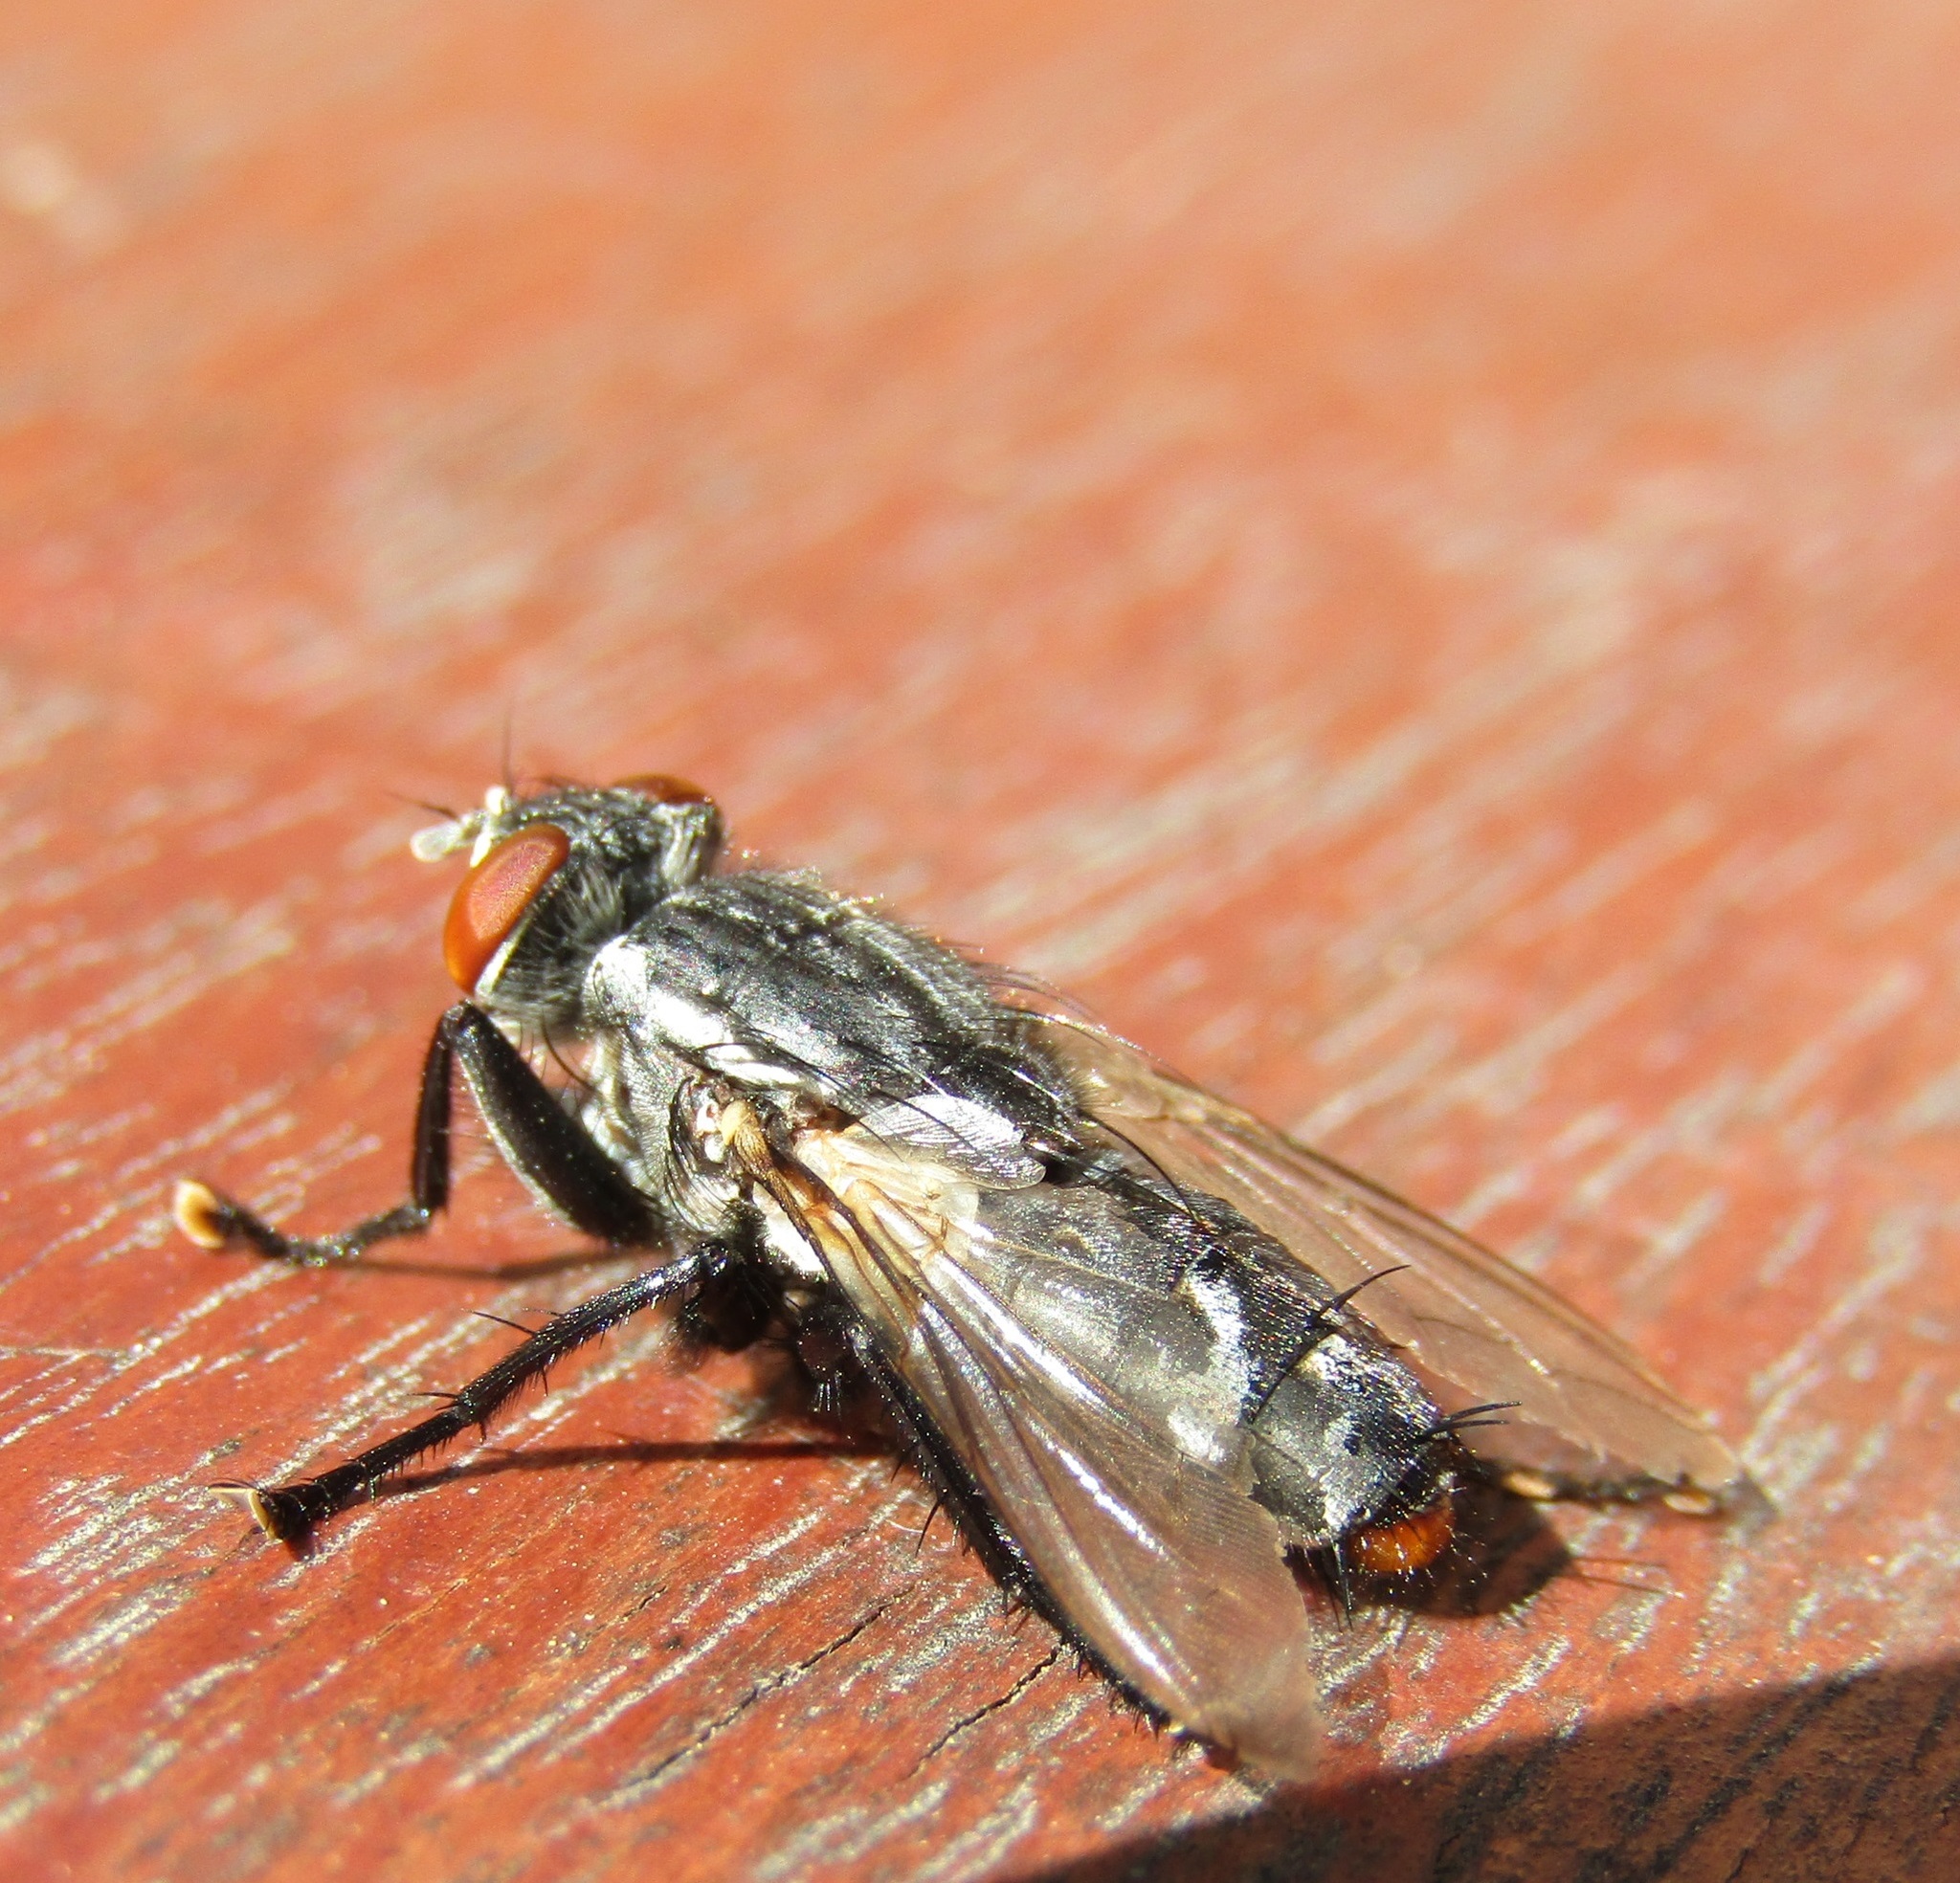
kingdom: Animalia
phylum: Arthropoda
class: Insecta
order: Diptera
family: Sarcophagidae
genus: Sarcophaga
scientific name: Sarcophaga crassipalpis
